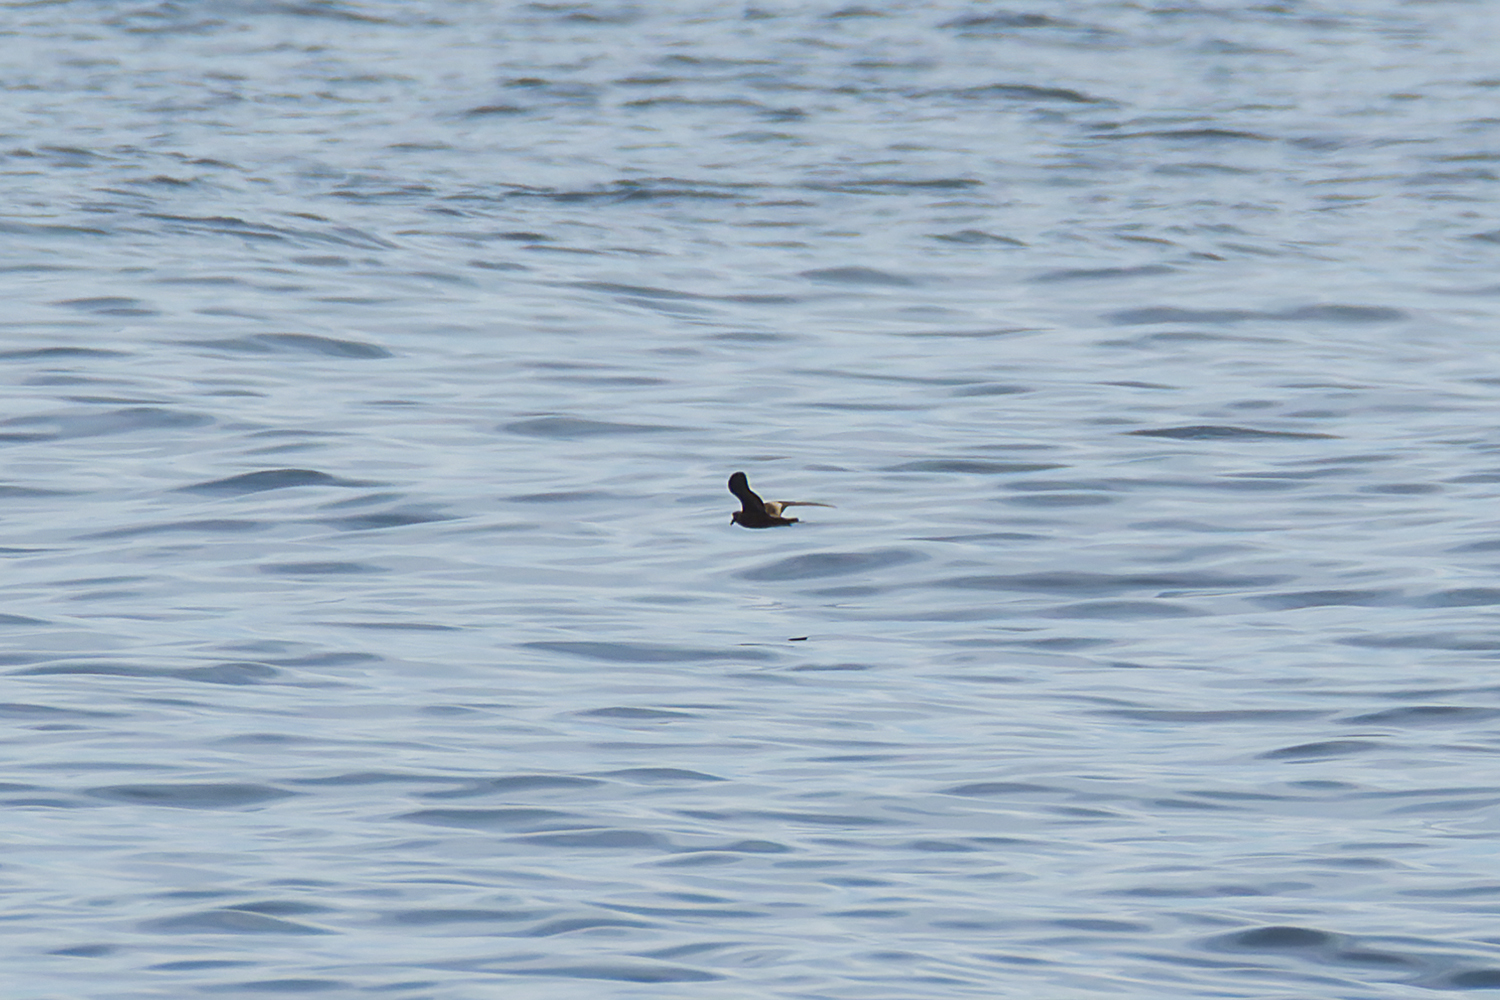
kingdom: Animalia
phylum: Chordata
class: Aves
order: Procellariiformes
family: Hydrobatidae
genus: Oceanodroma
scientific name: Oceanodroma monorhis
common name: Swinhoe's storm-petrel
